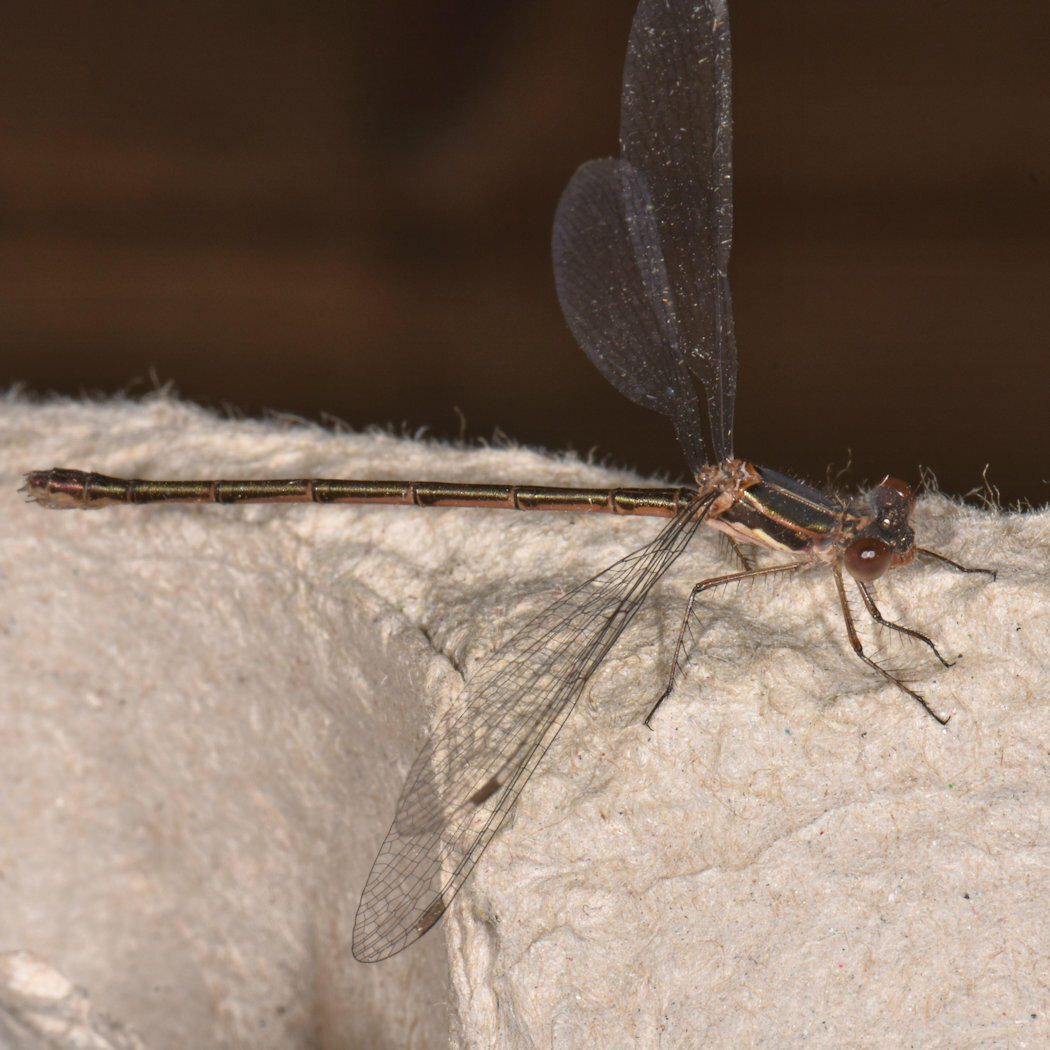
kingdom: Animalia
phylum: Arthropoda
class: Insecta
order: Odonata
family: Lestidae
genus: Lestes
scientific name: Lestes congener
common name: Spotted spreadwing
